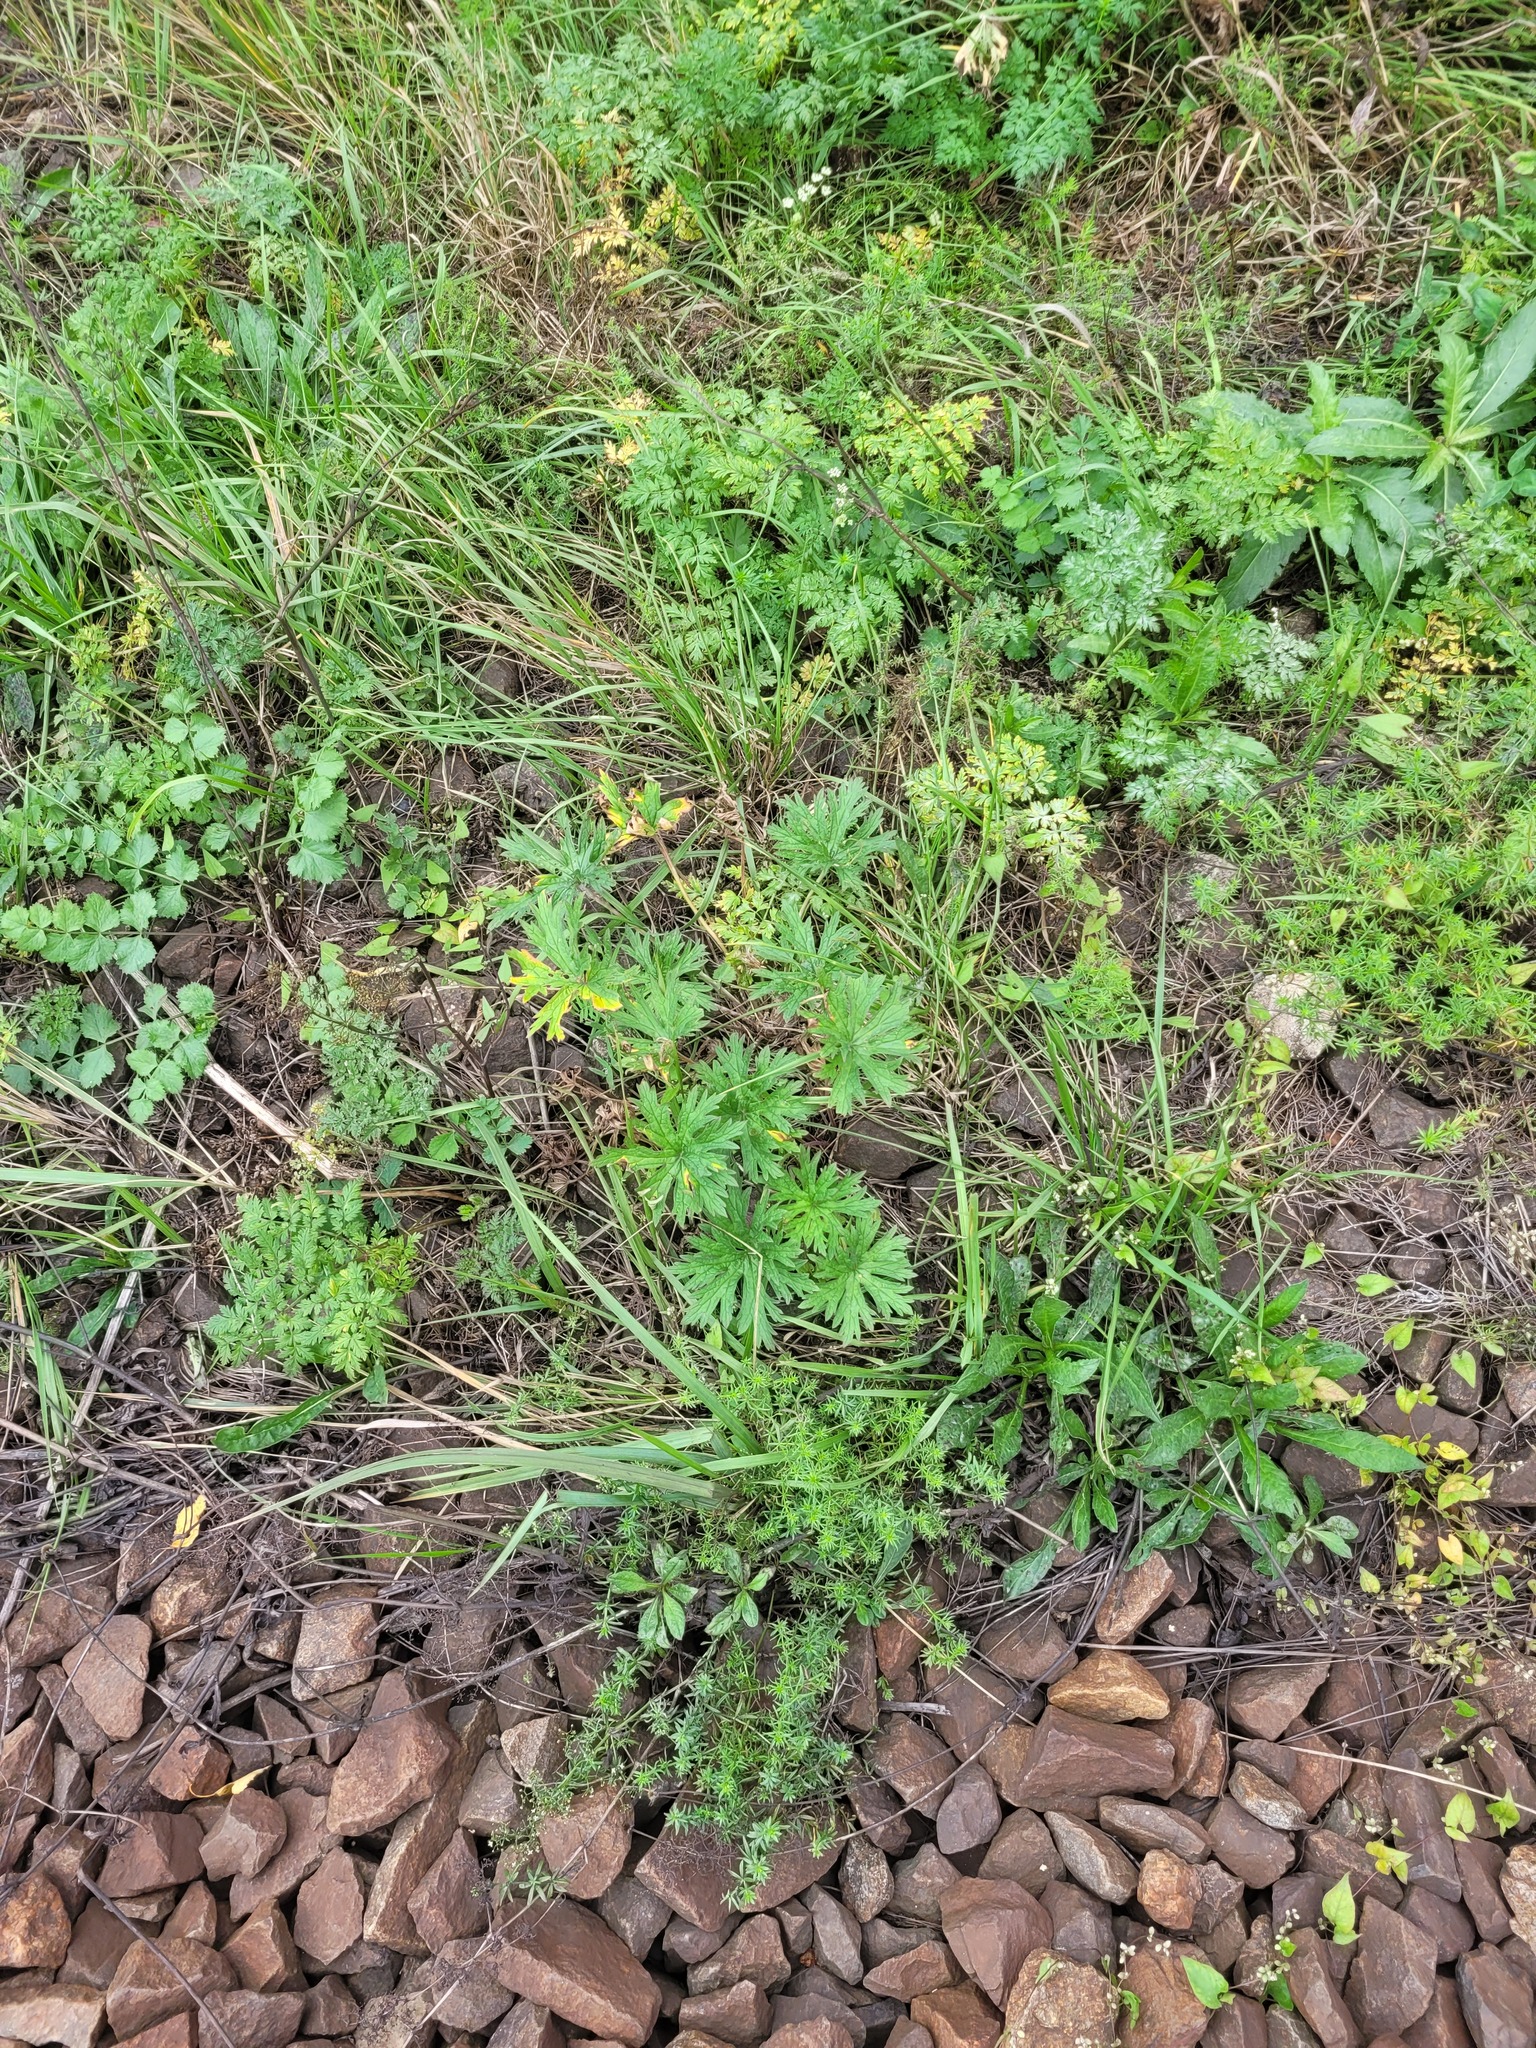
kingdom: Plantae
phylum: Tracheophyta
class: Magnoliopsida
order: Geraniales
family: Geraniaceae
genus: Geranium
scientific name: Geranium pratense
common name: Meadow crane's-bill
